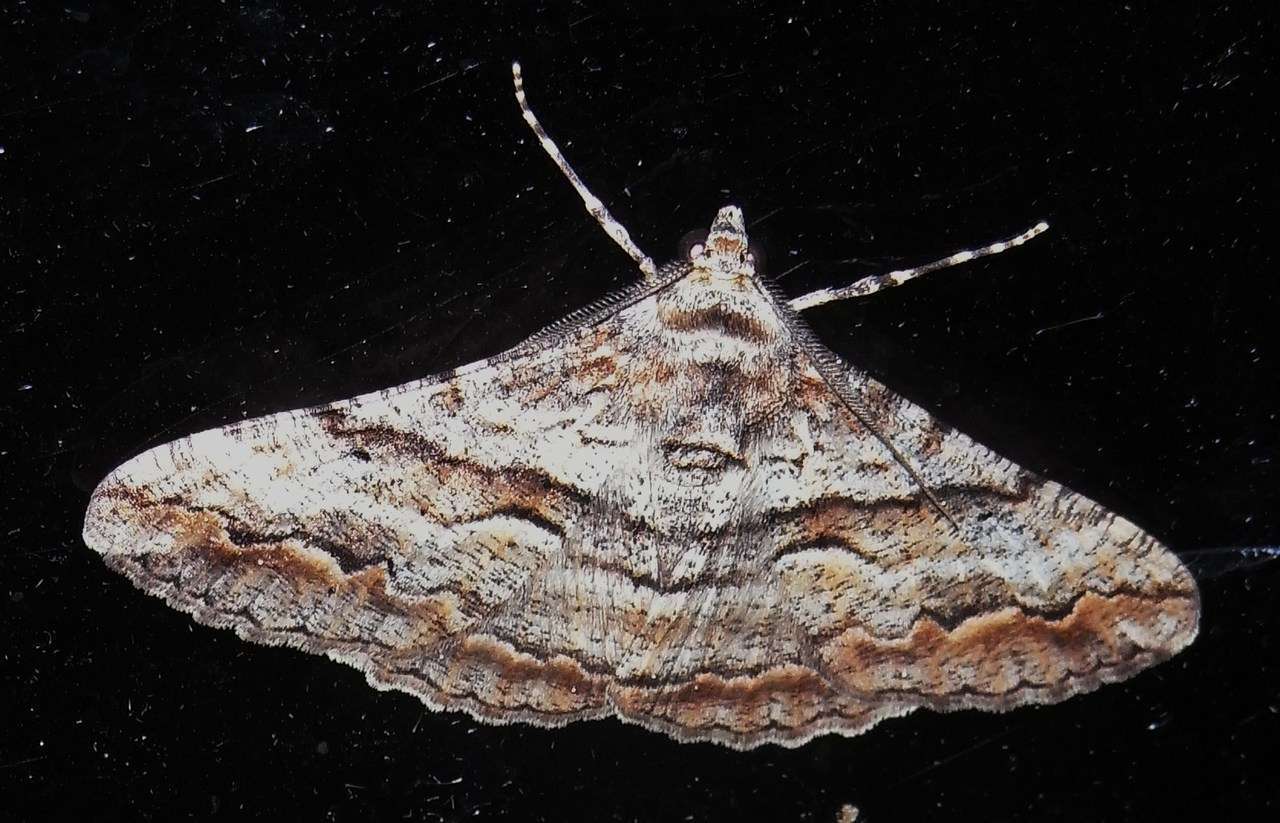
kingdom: Animalia
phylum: Arthropoda
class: Insecta
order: Lepidoptera
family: Geometridae
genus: Gastrinodes
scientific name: Gastrinodes bitaeniaria
